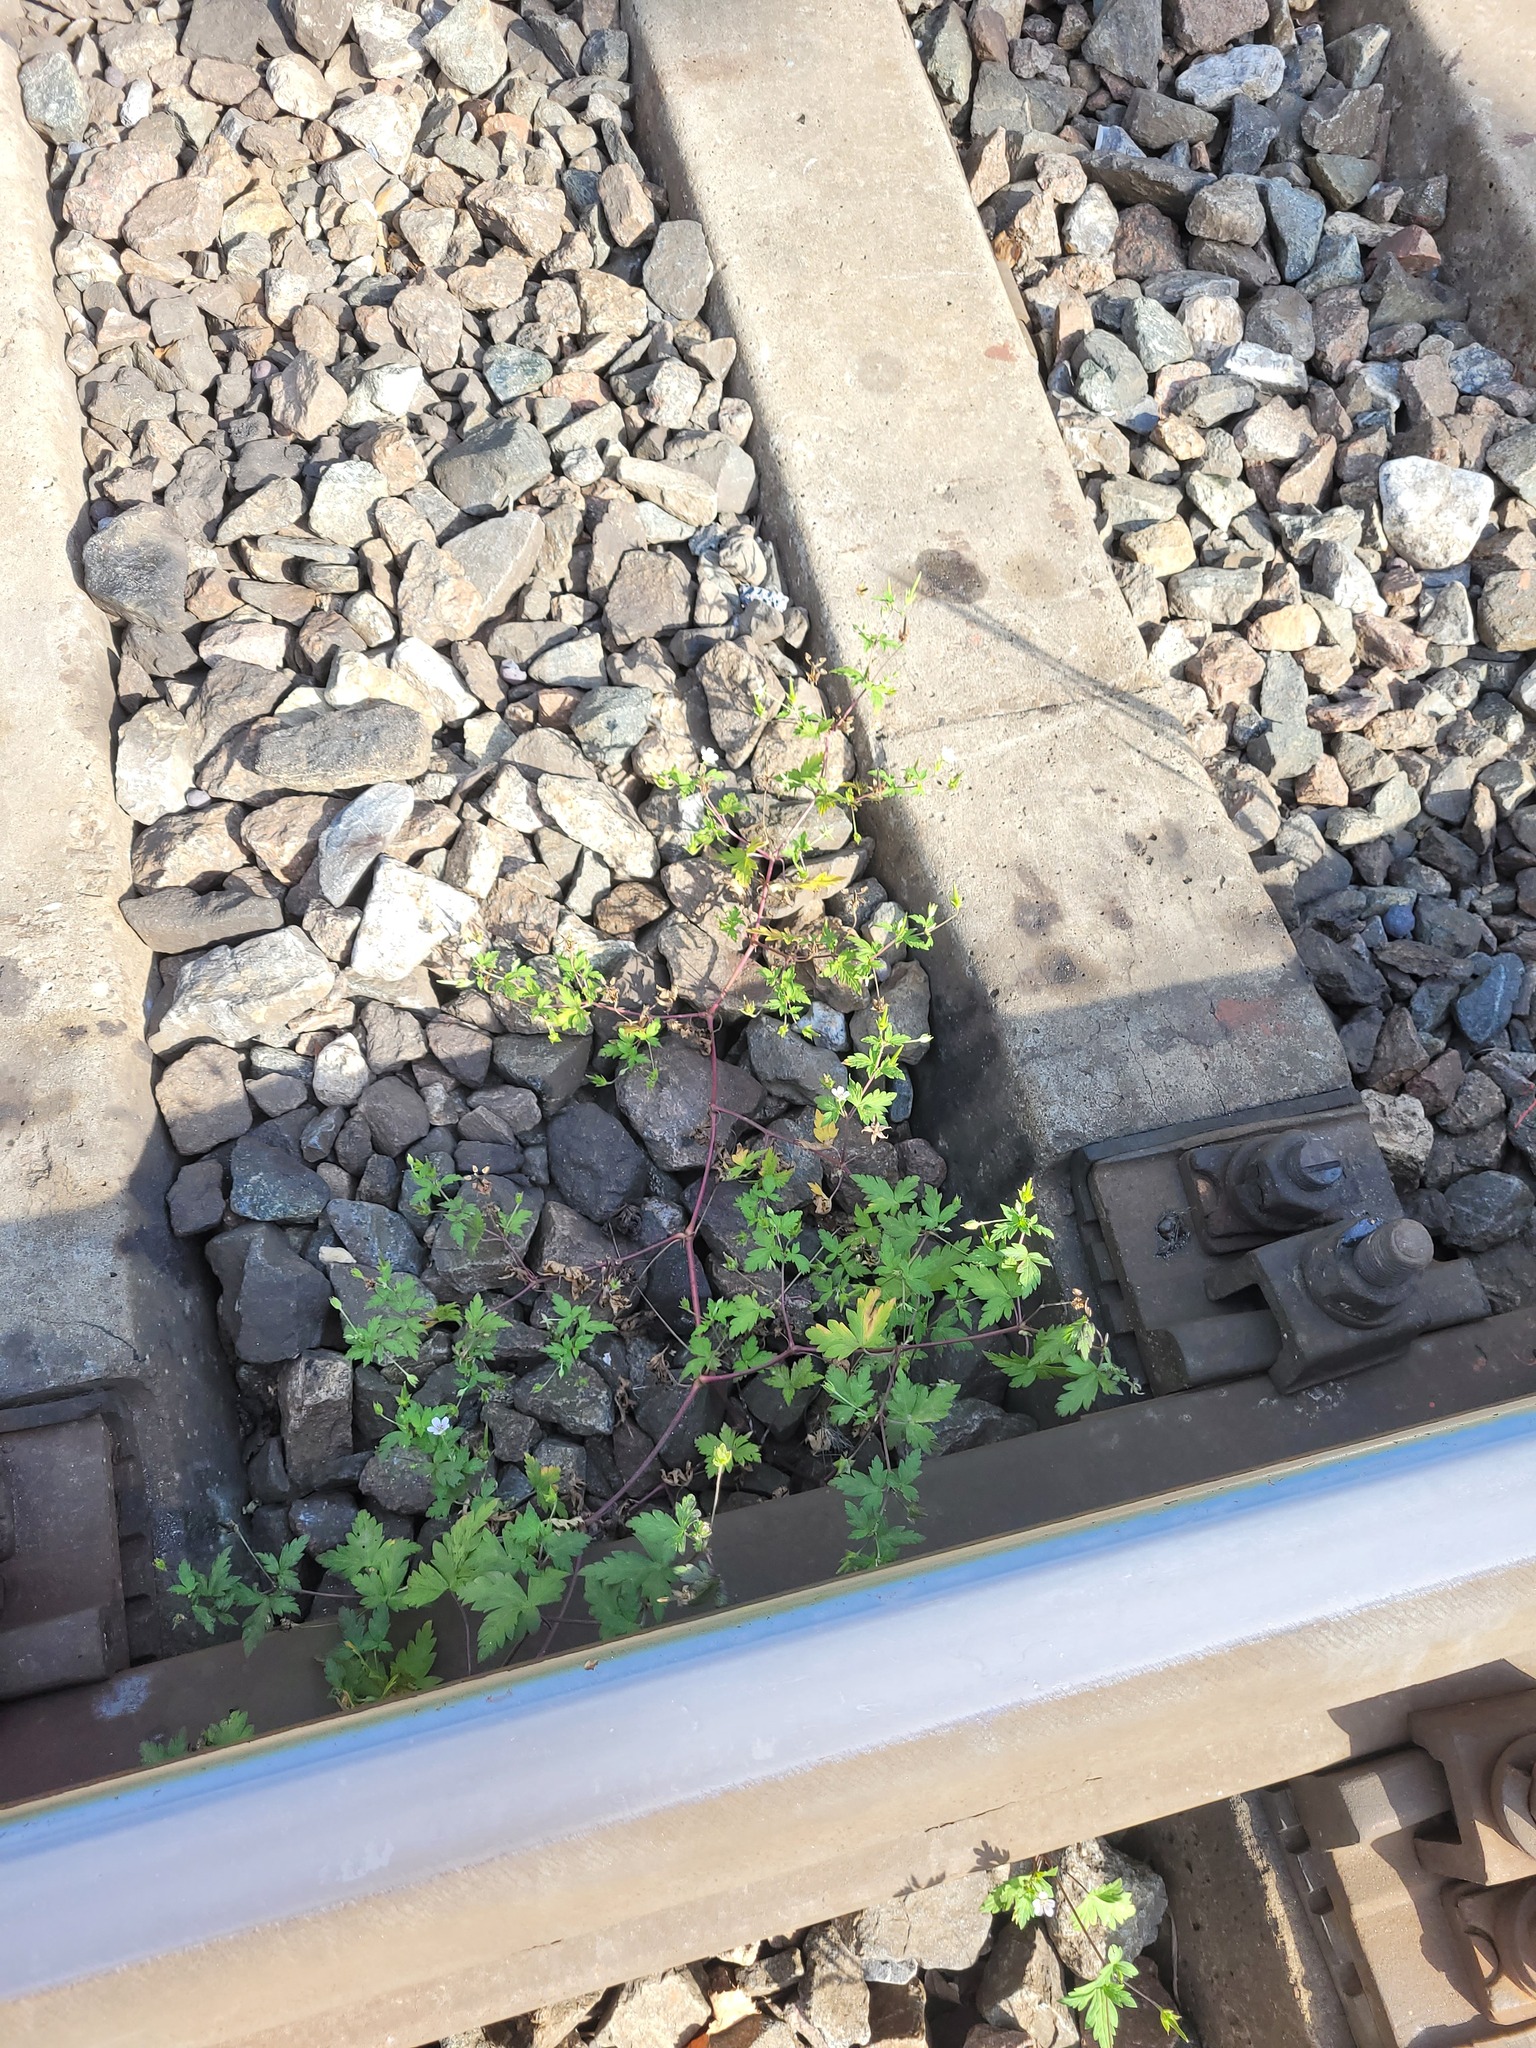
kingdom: Plantae
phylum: Tracheophyta
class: Magnoliopsida
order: Geraniales
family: Geraniaceae
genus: Geranium
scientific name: Geranium sibiricum
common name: Siberian crane's-bill
